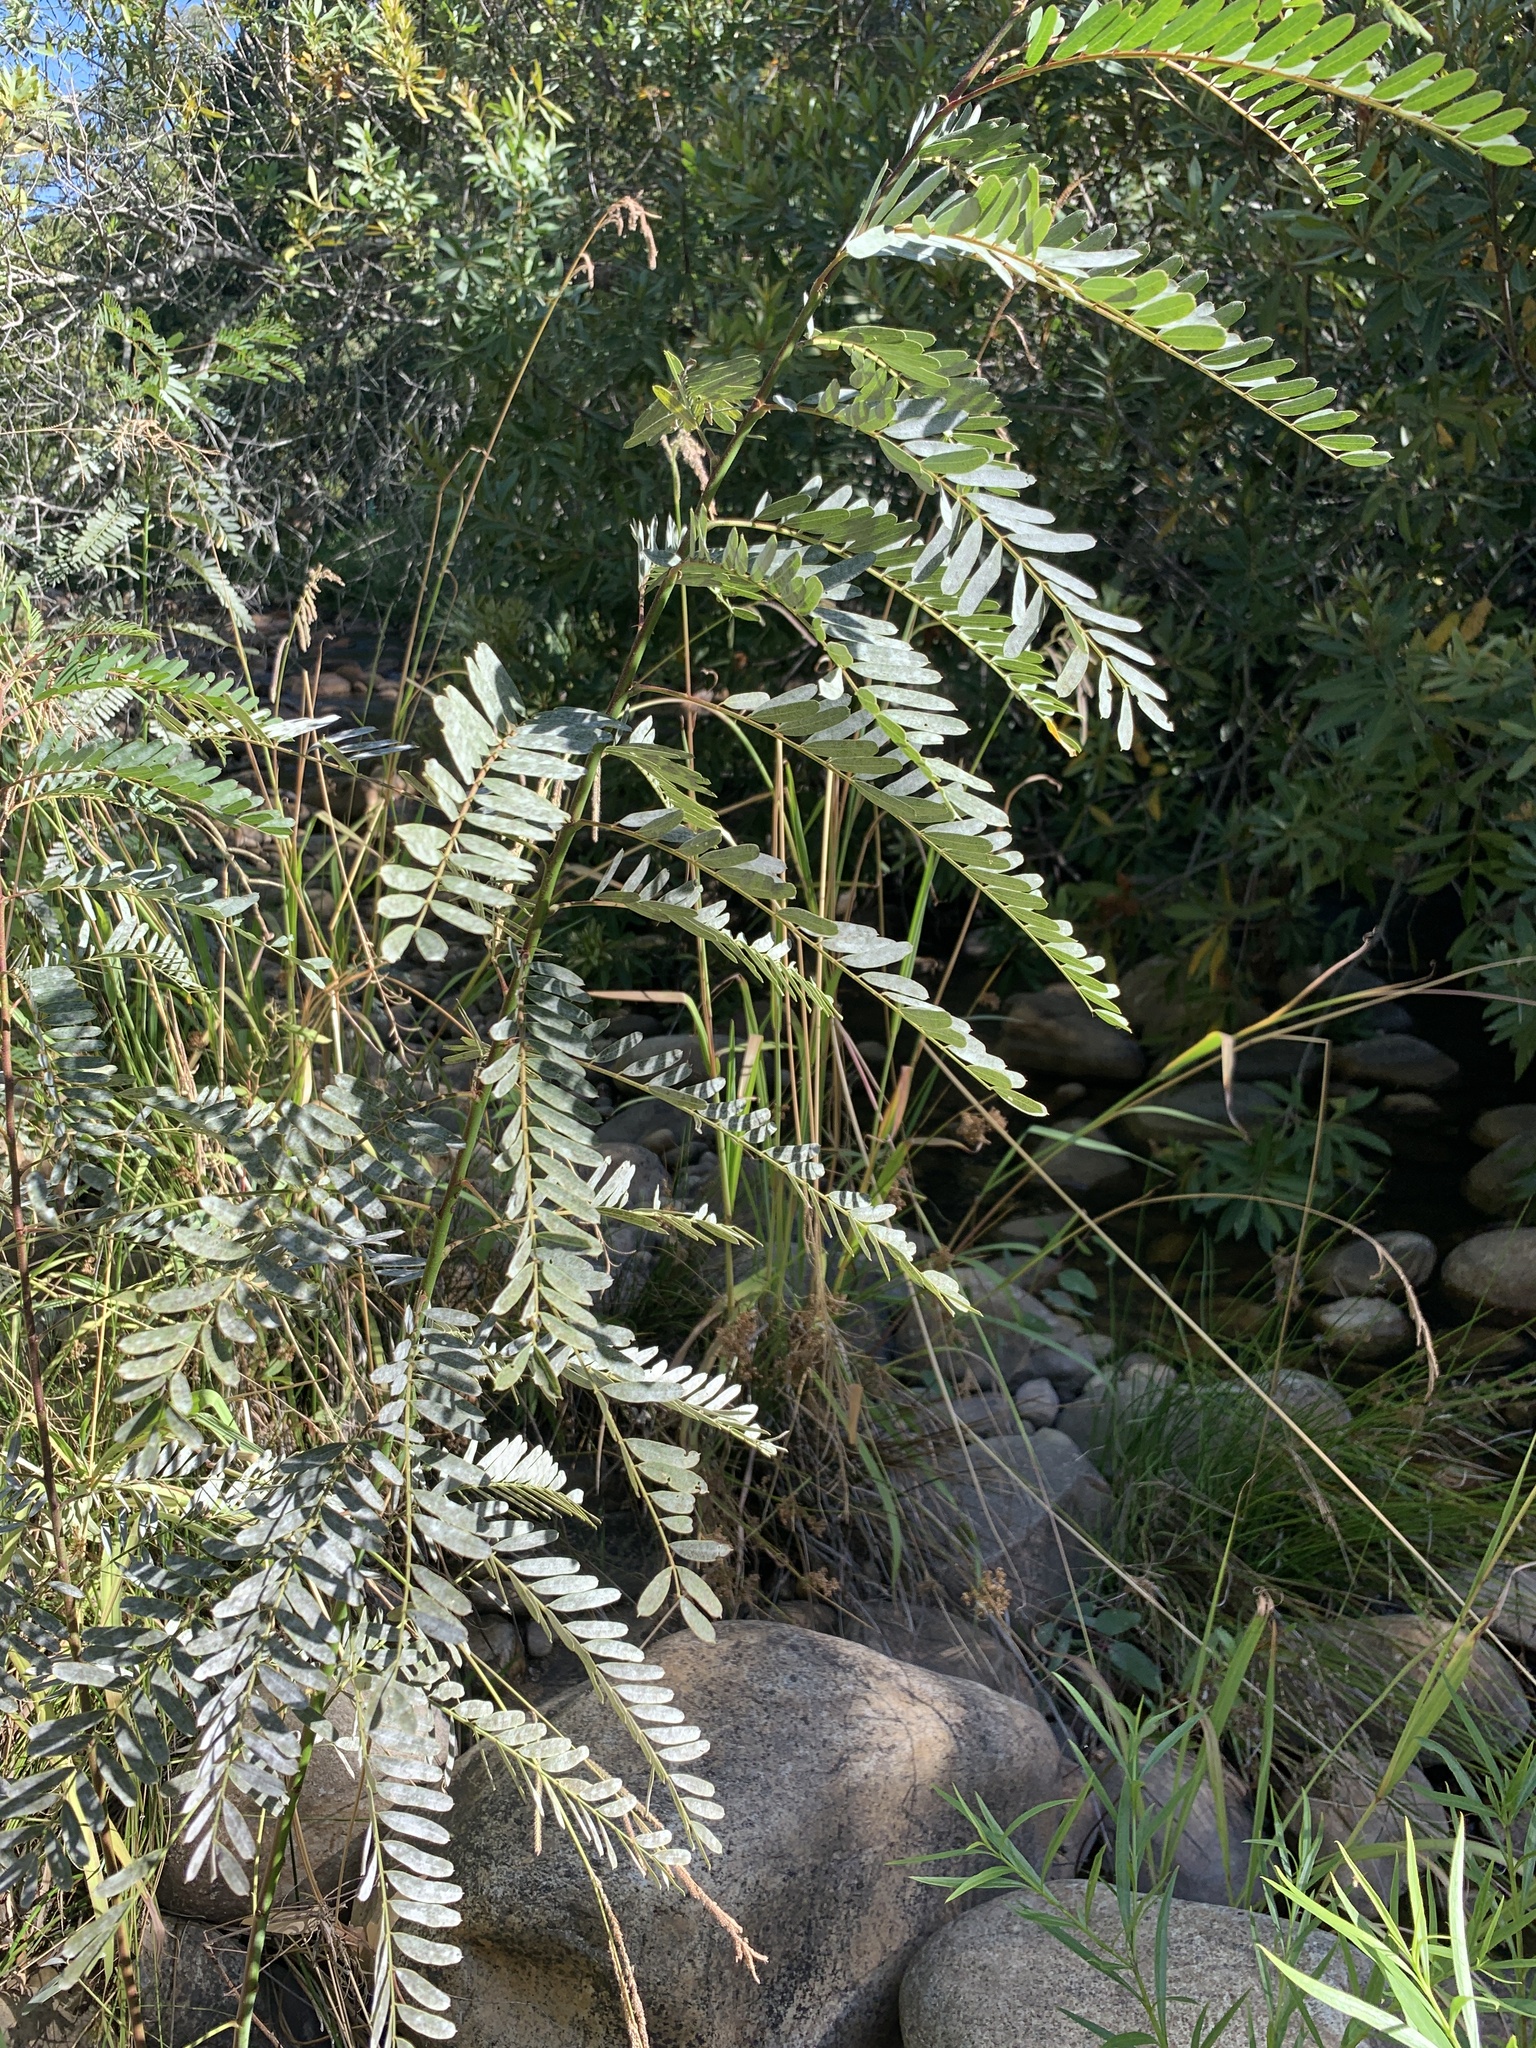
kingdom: Plantae
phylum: Tracheophyta
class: Magnoliopsida
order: Fabales
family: Fabaceae
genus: Sesbania
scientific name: Sesbania punicea
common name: Rattlebox
